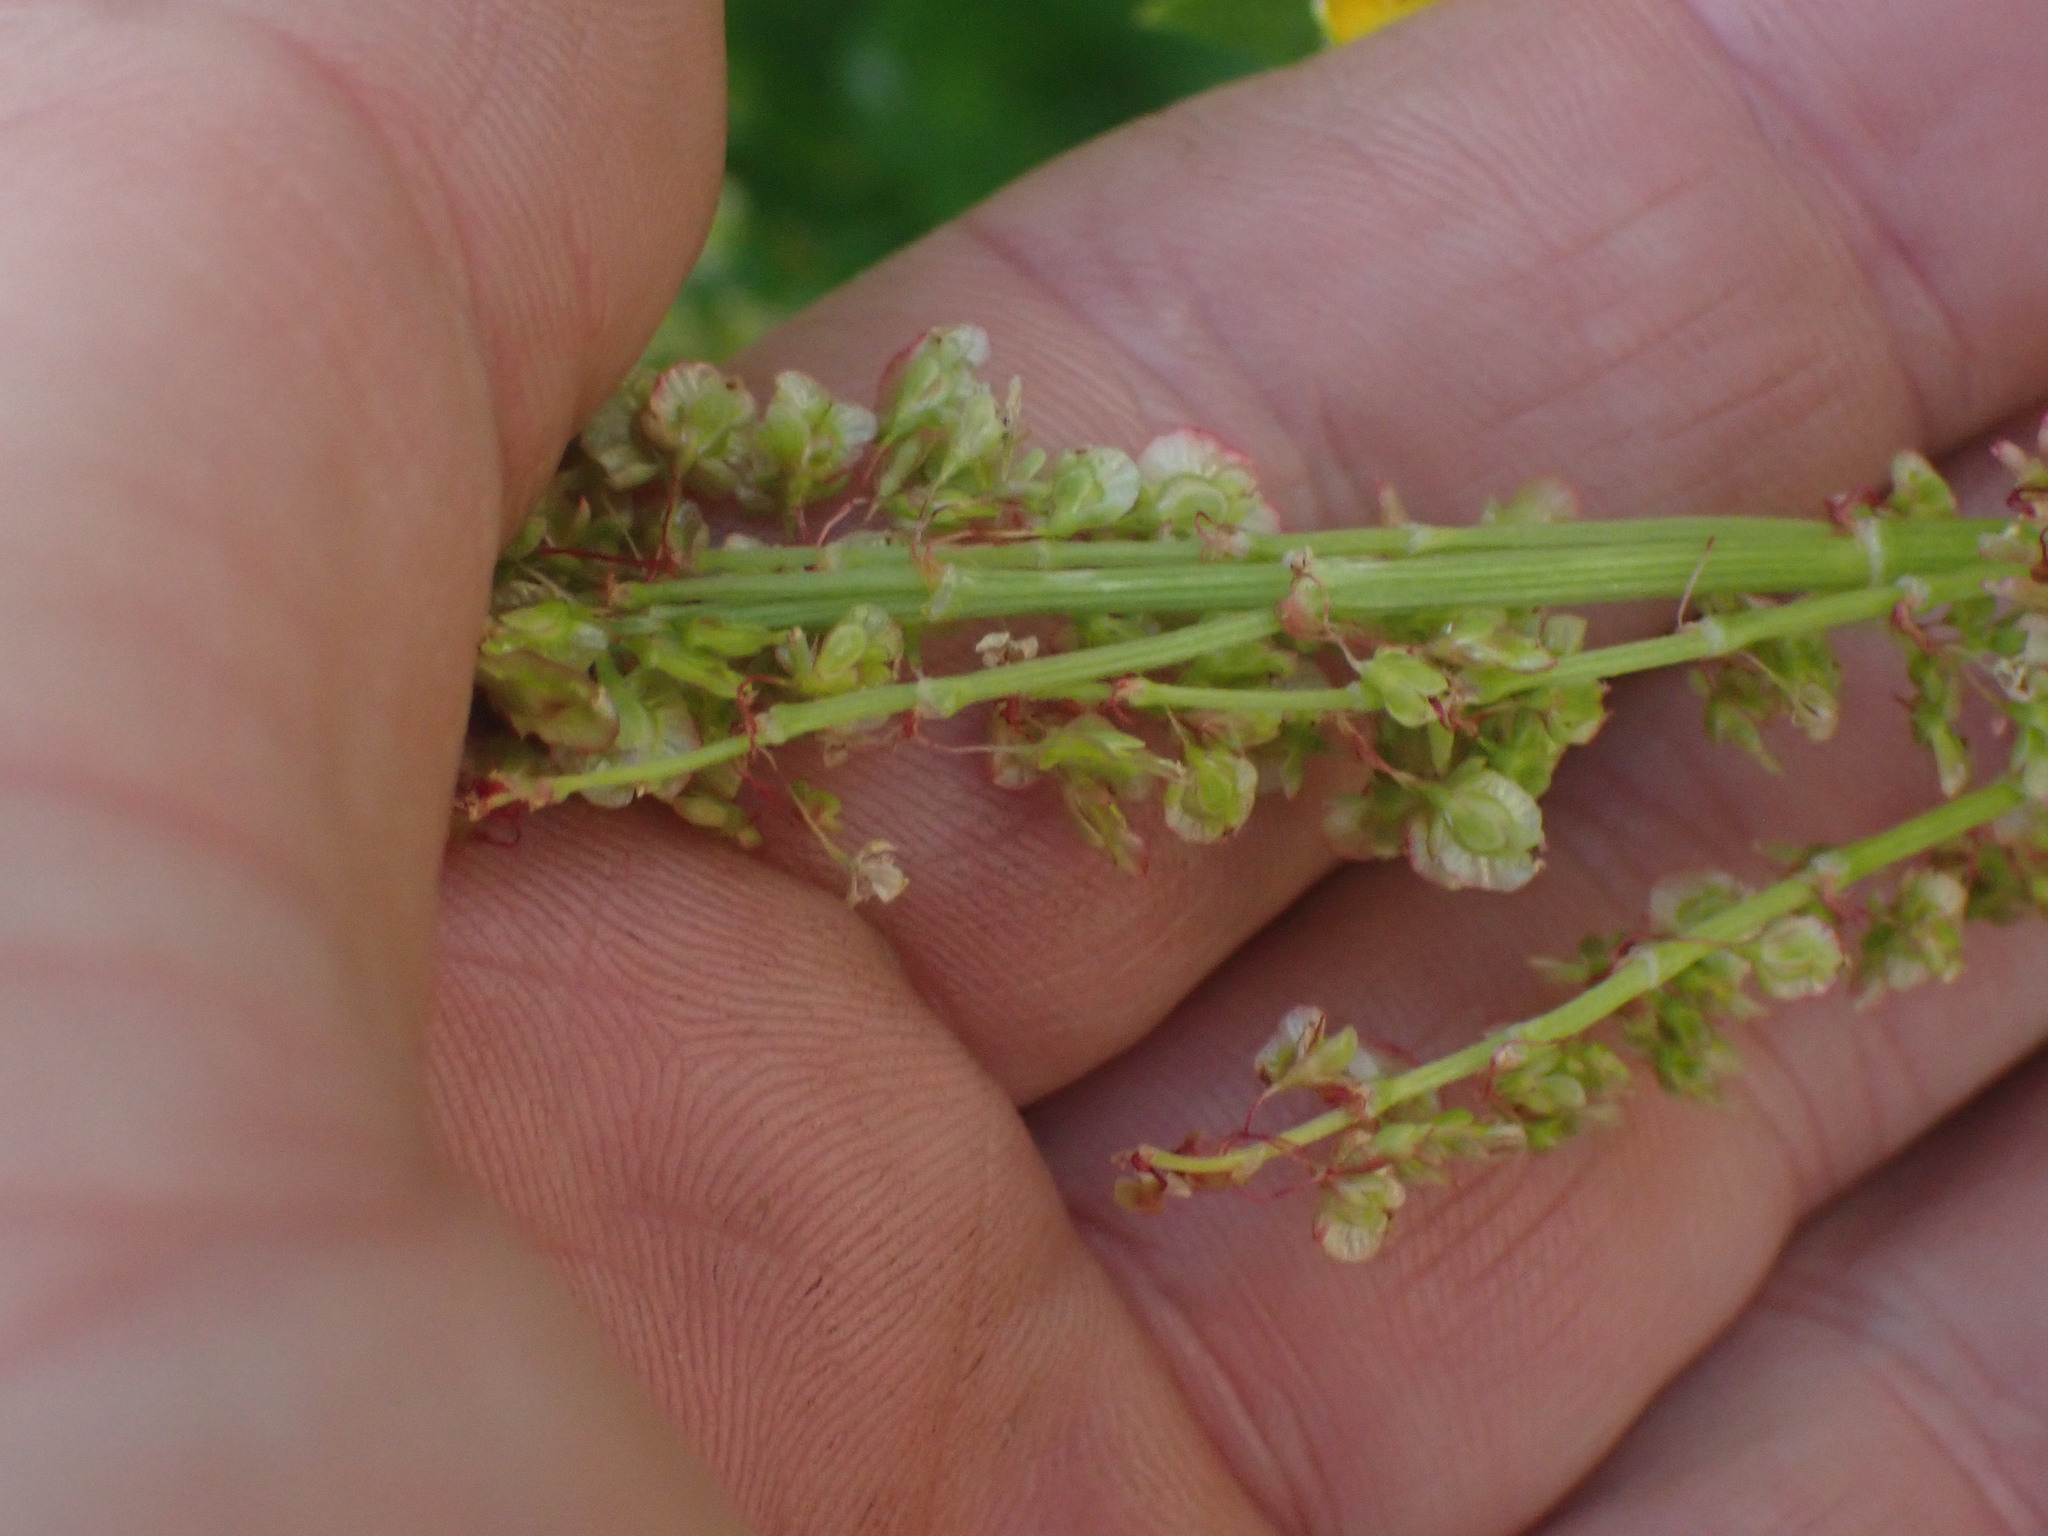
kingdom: Plantae
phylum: Tracheophyta
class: Magnoliopsida
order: Caryophyllales
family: Polygonaceae
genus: Oxyria
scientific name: Oxyria digyna
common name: Alpine mountain-sorrel
